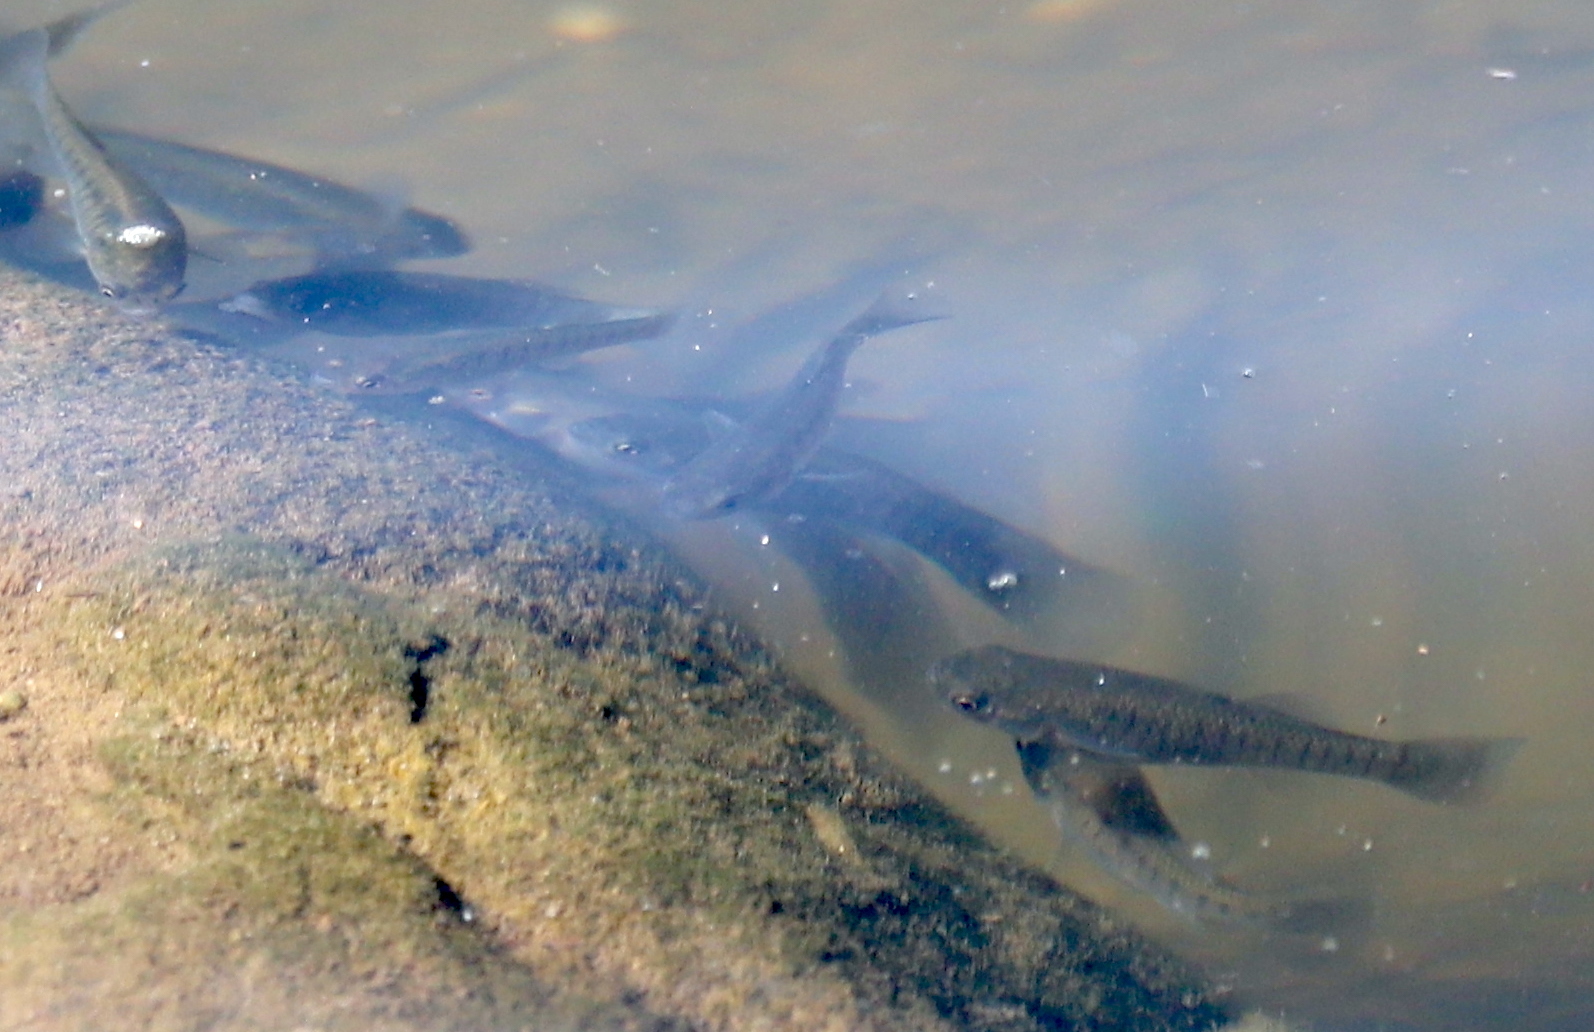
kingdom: Animalia
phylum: Chordata
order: Cyprinodontiformes
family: Fundulidae
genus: Fundulus
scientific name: Fundulus heteroclitus
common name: Mummichog
